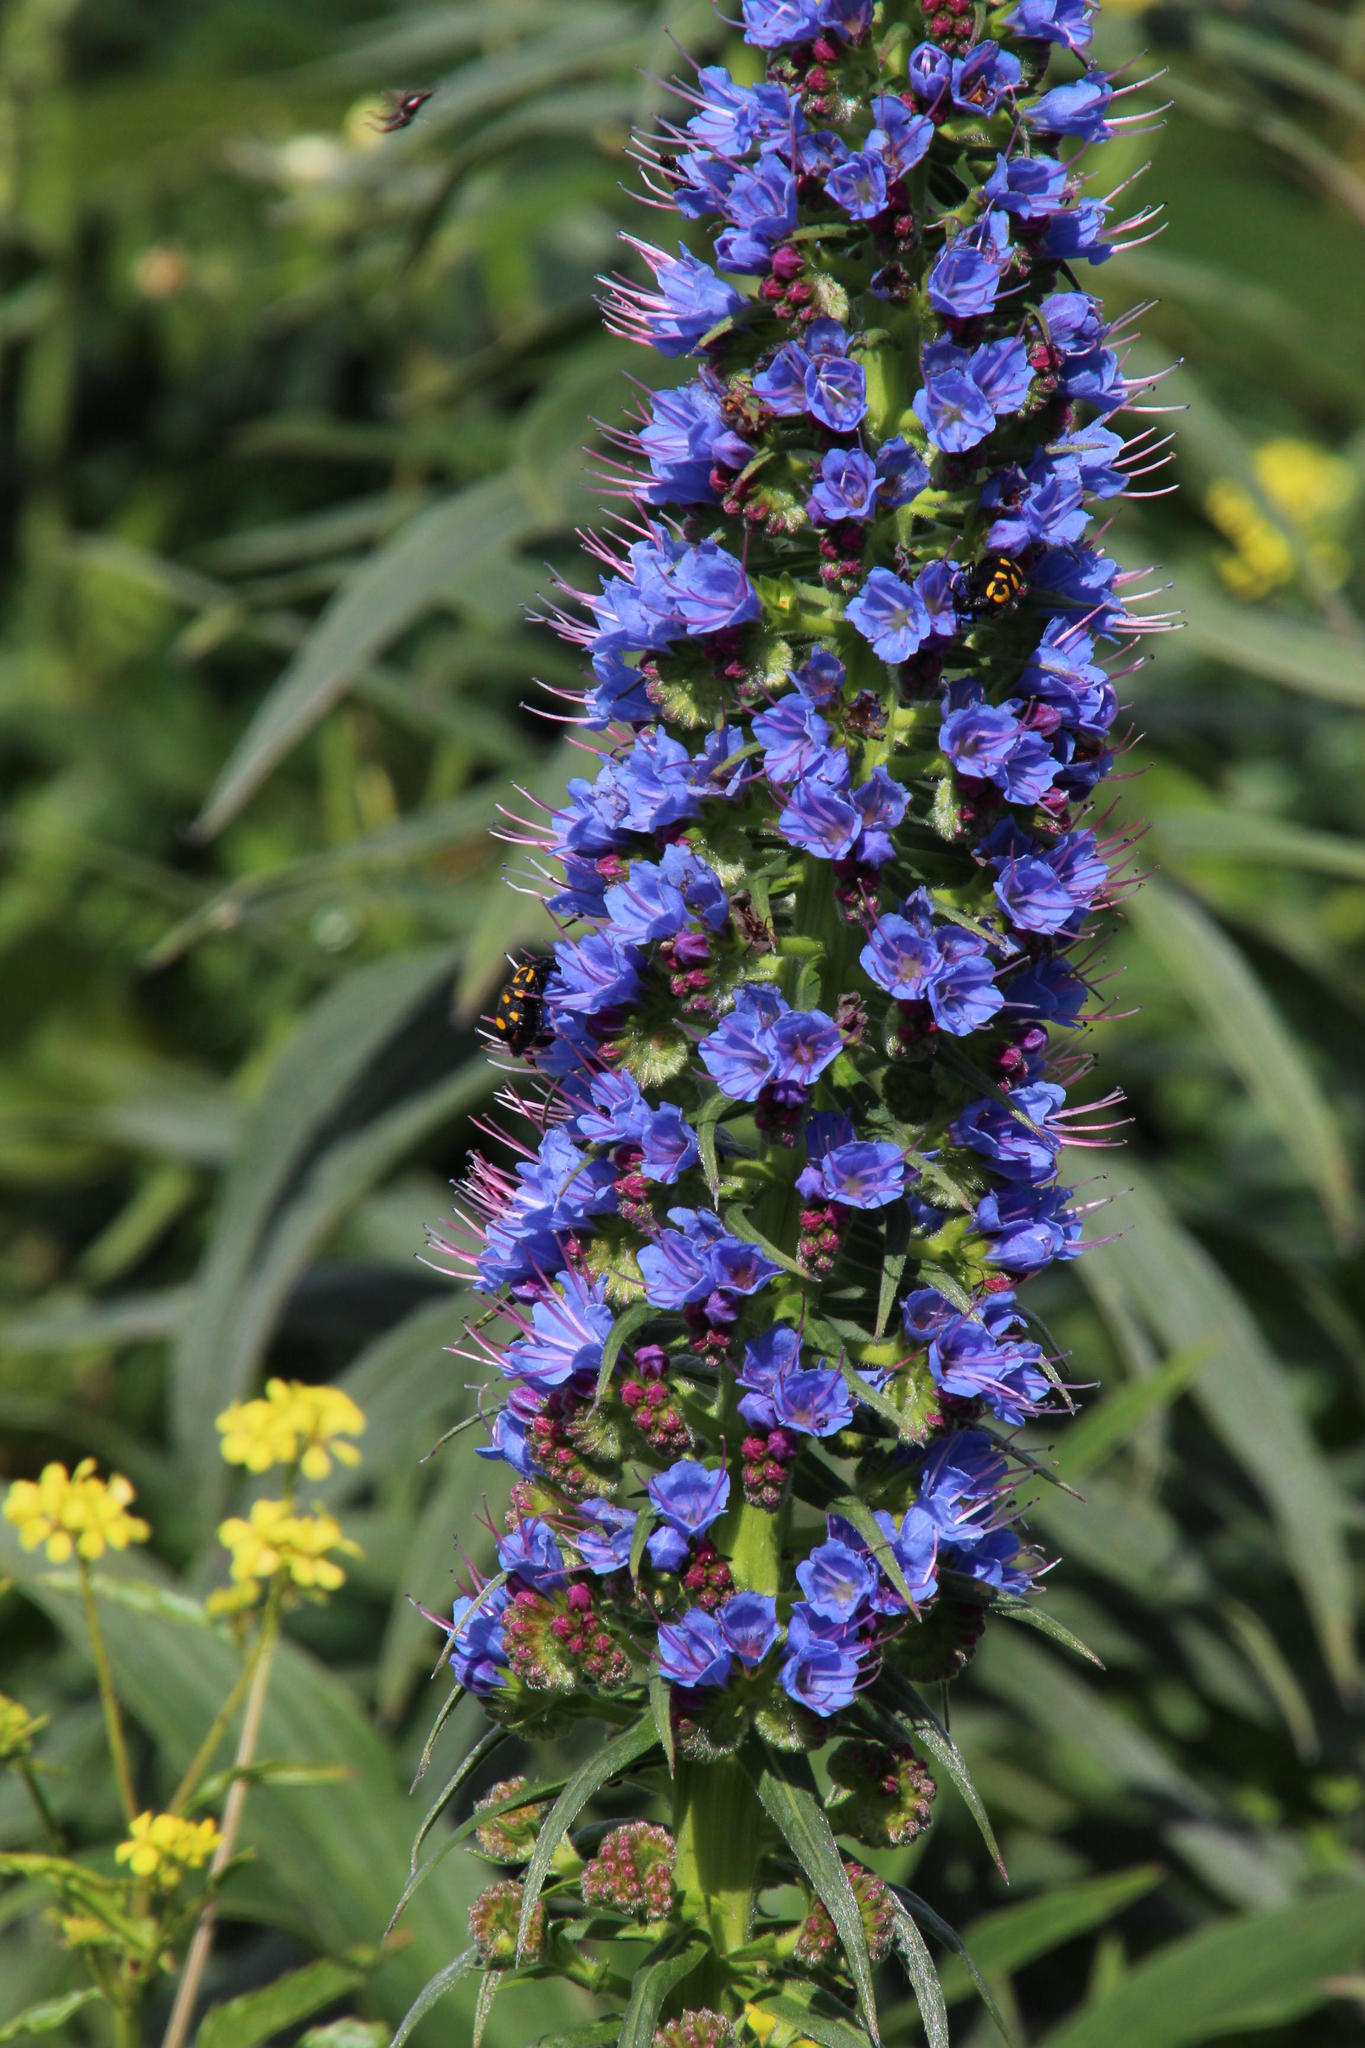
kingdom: Animalia
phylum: Arthropoda
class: Insecta
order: Coleoptera
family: Meloidae
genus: Ceroctis
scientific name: Ceroctis capensis
